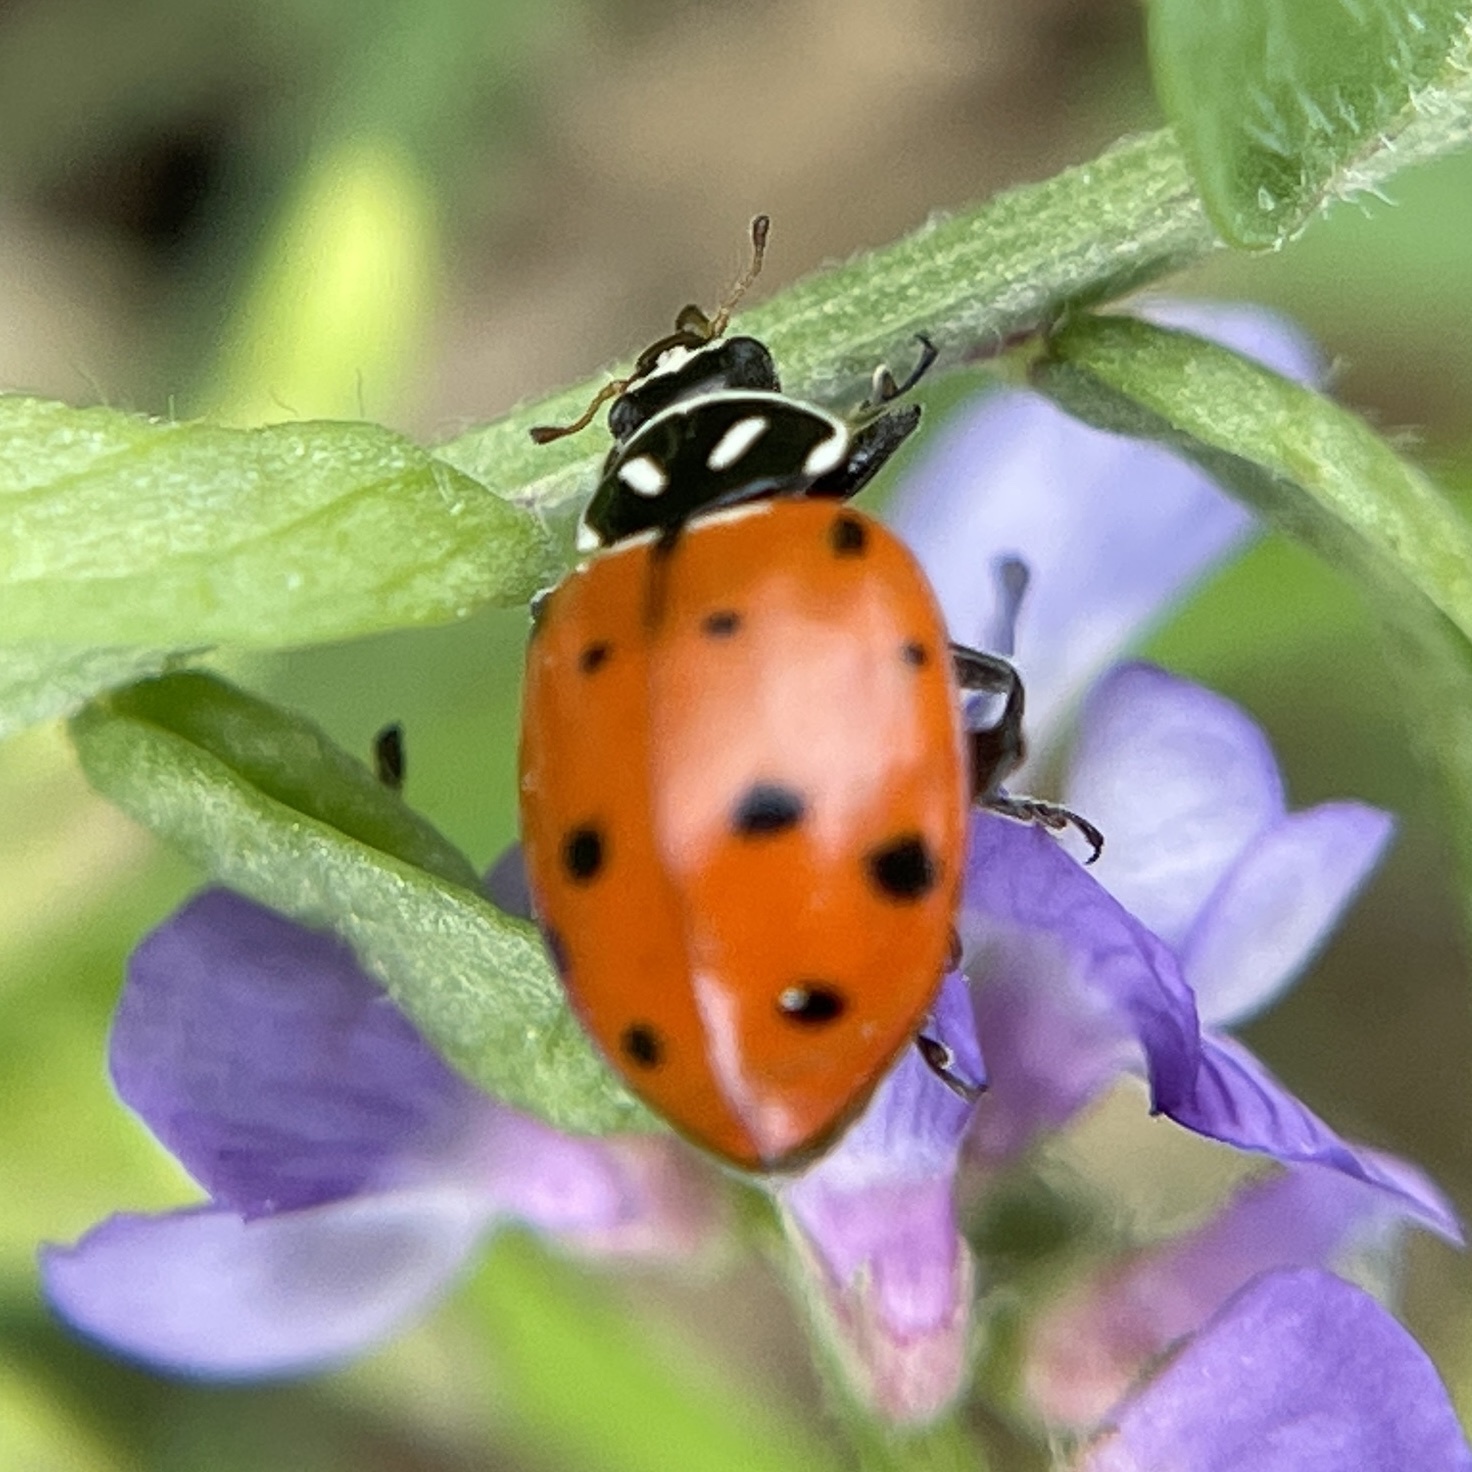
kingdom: Animalia
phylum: Arthropoda
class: Insecta
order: Coleoptera
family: Coccinellidae
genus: Hippodamia
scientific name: Hippodamia convergens
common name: Convergent lady beetle
